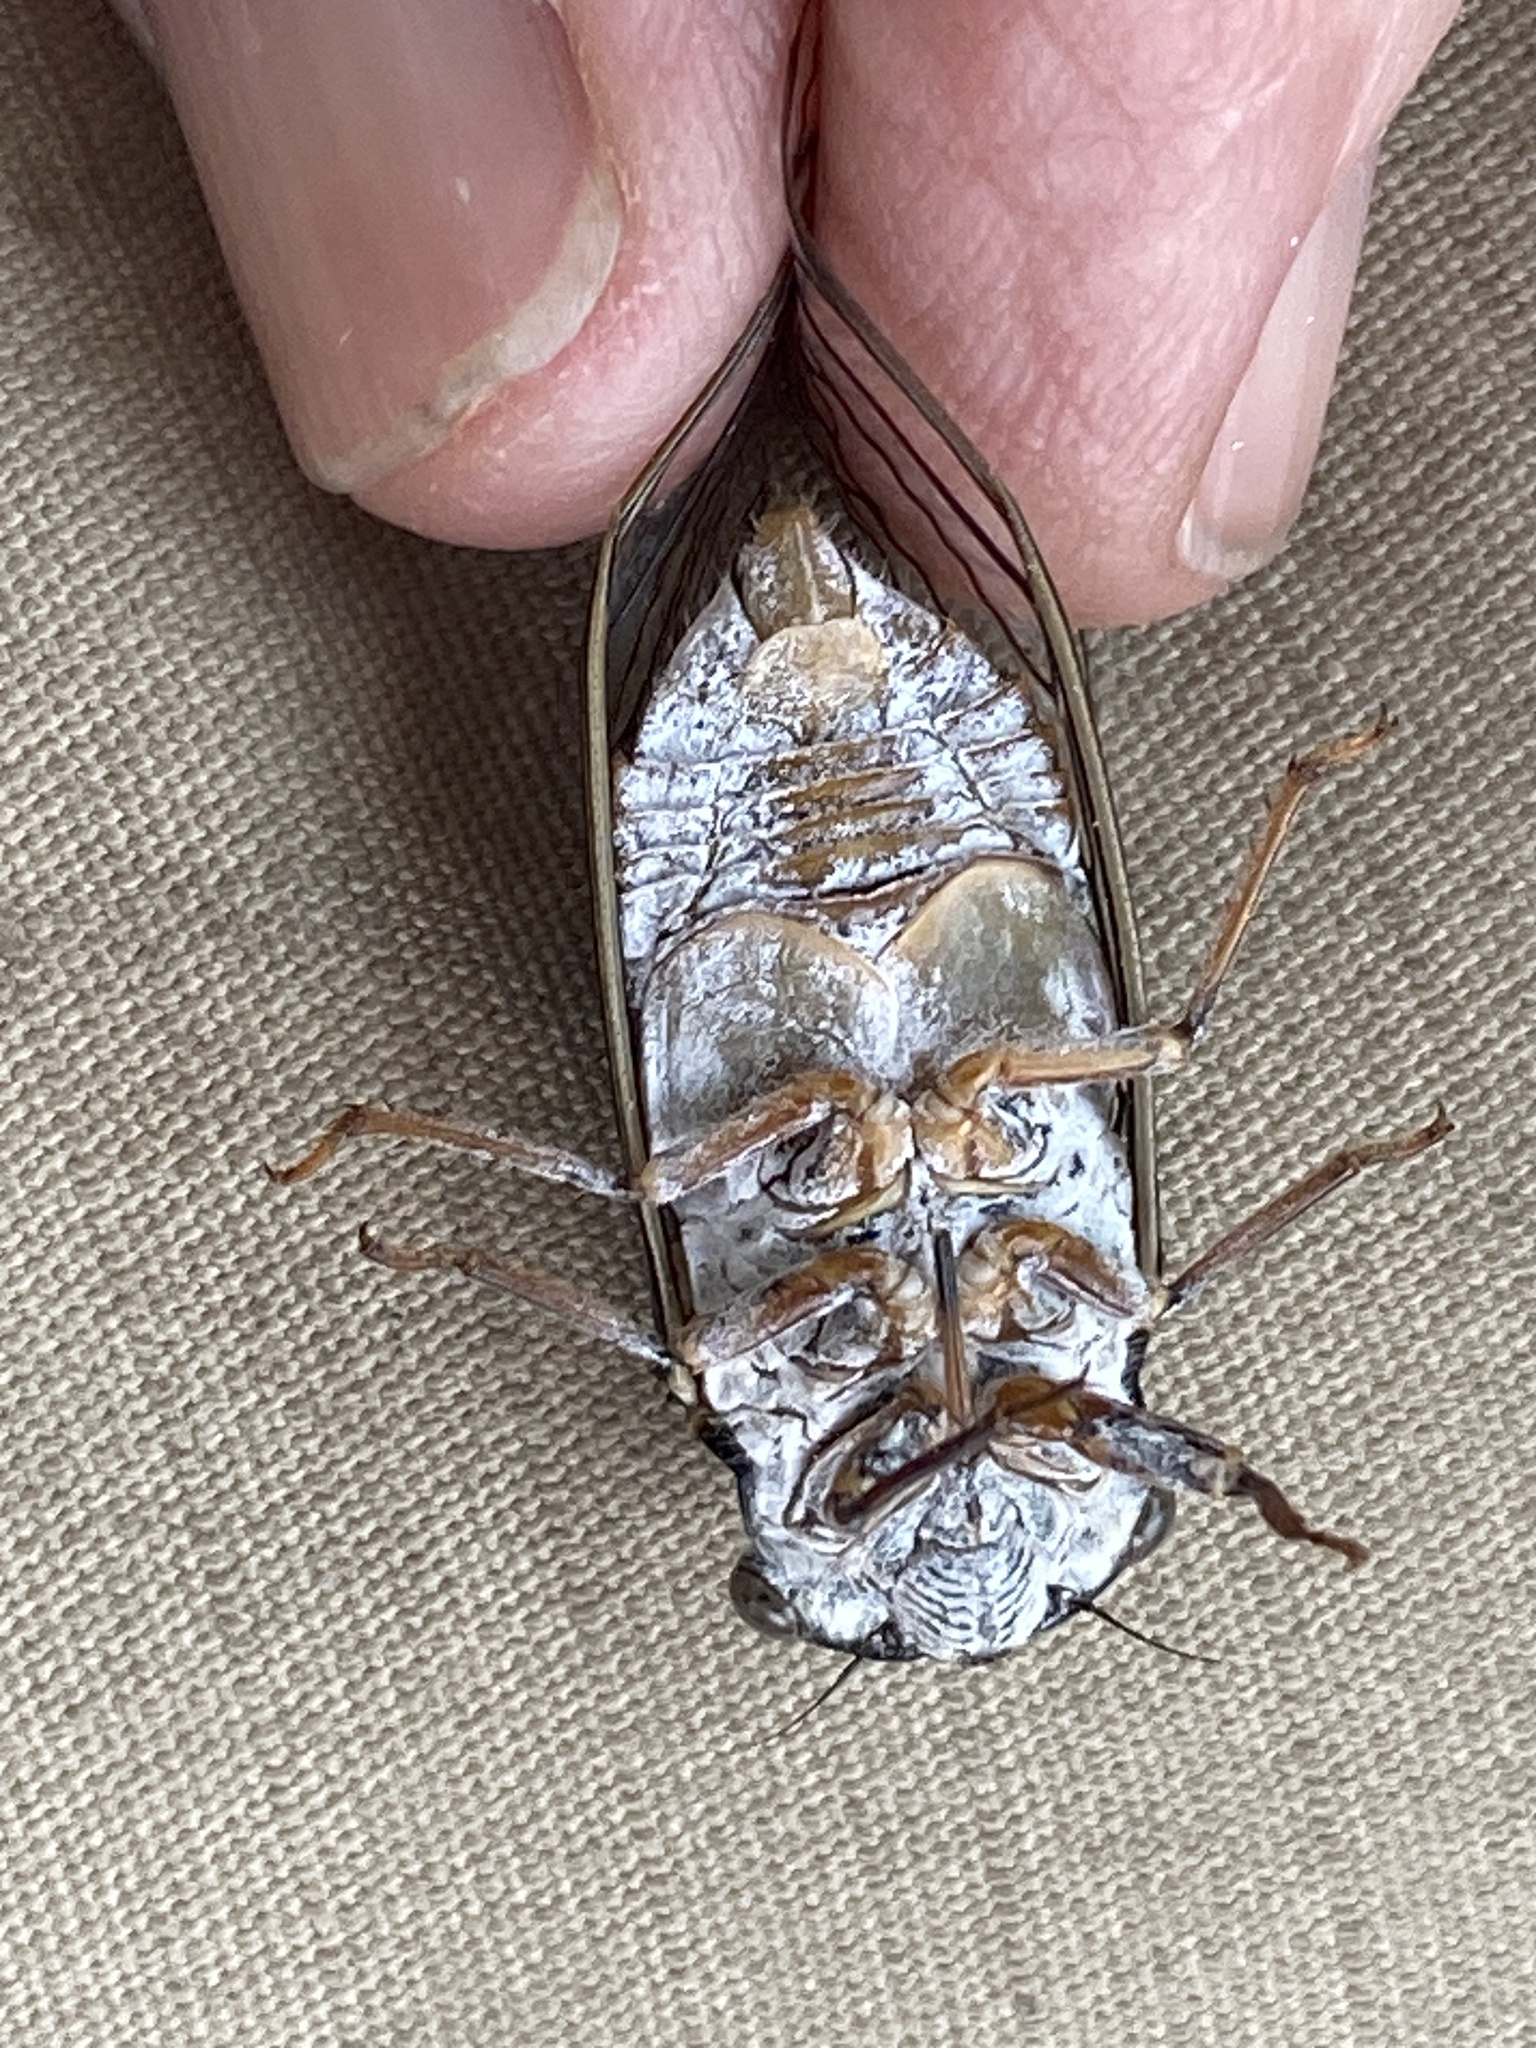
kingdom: Animalia
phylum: Arthropoda
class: Insecta
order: Hemiptera
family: Cicadidae
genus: Hadoa
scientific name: Hadoa inaudita
